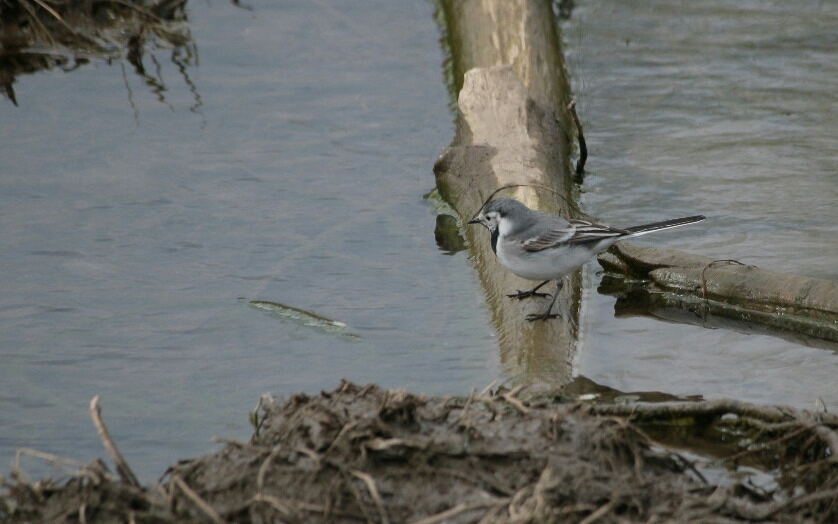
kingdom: Animalia
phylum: Chordata
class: Aves
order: Passeriformes
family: Motacillidae
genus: Motacilla
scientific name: Motacilla alba
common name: White wagtail
